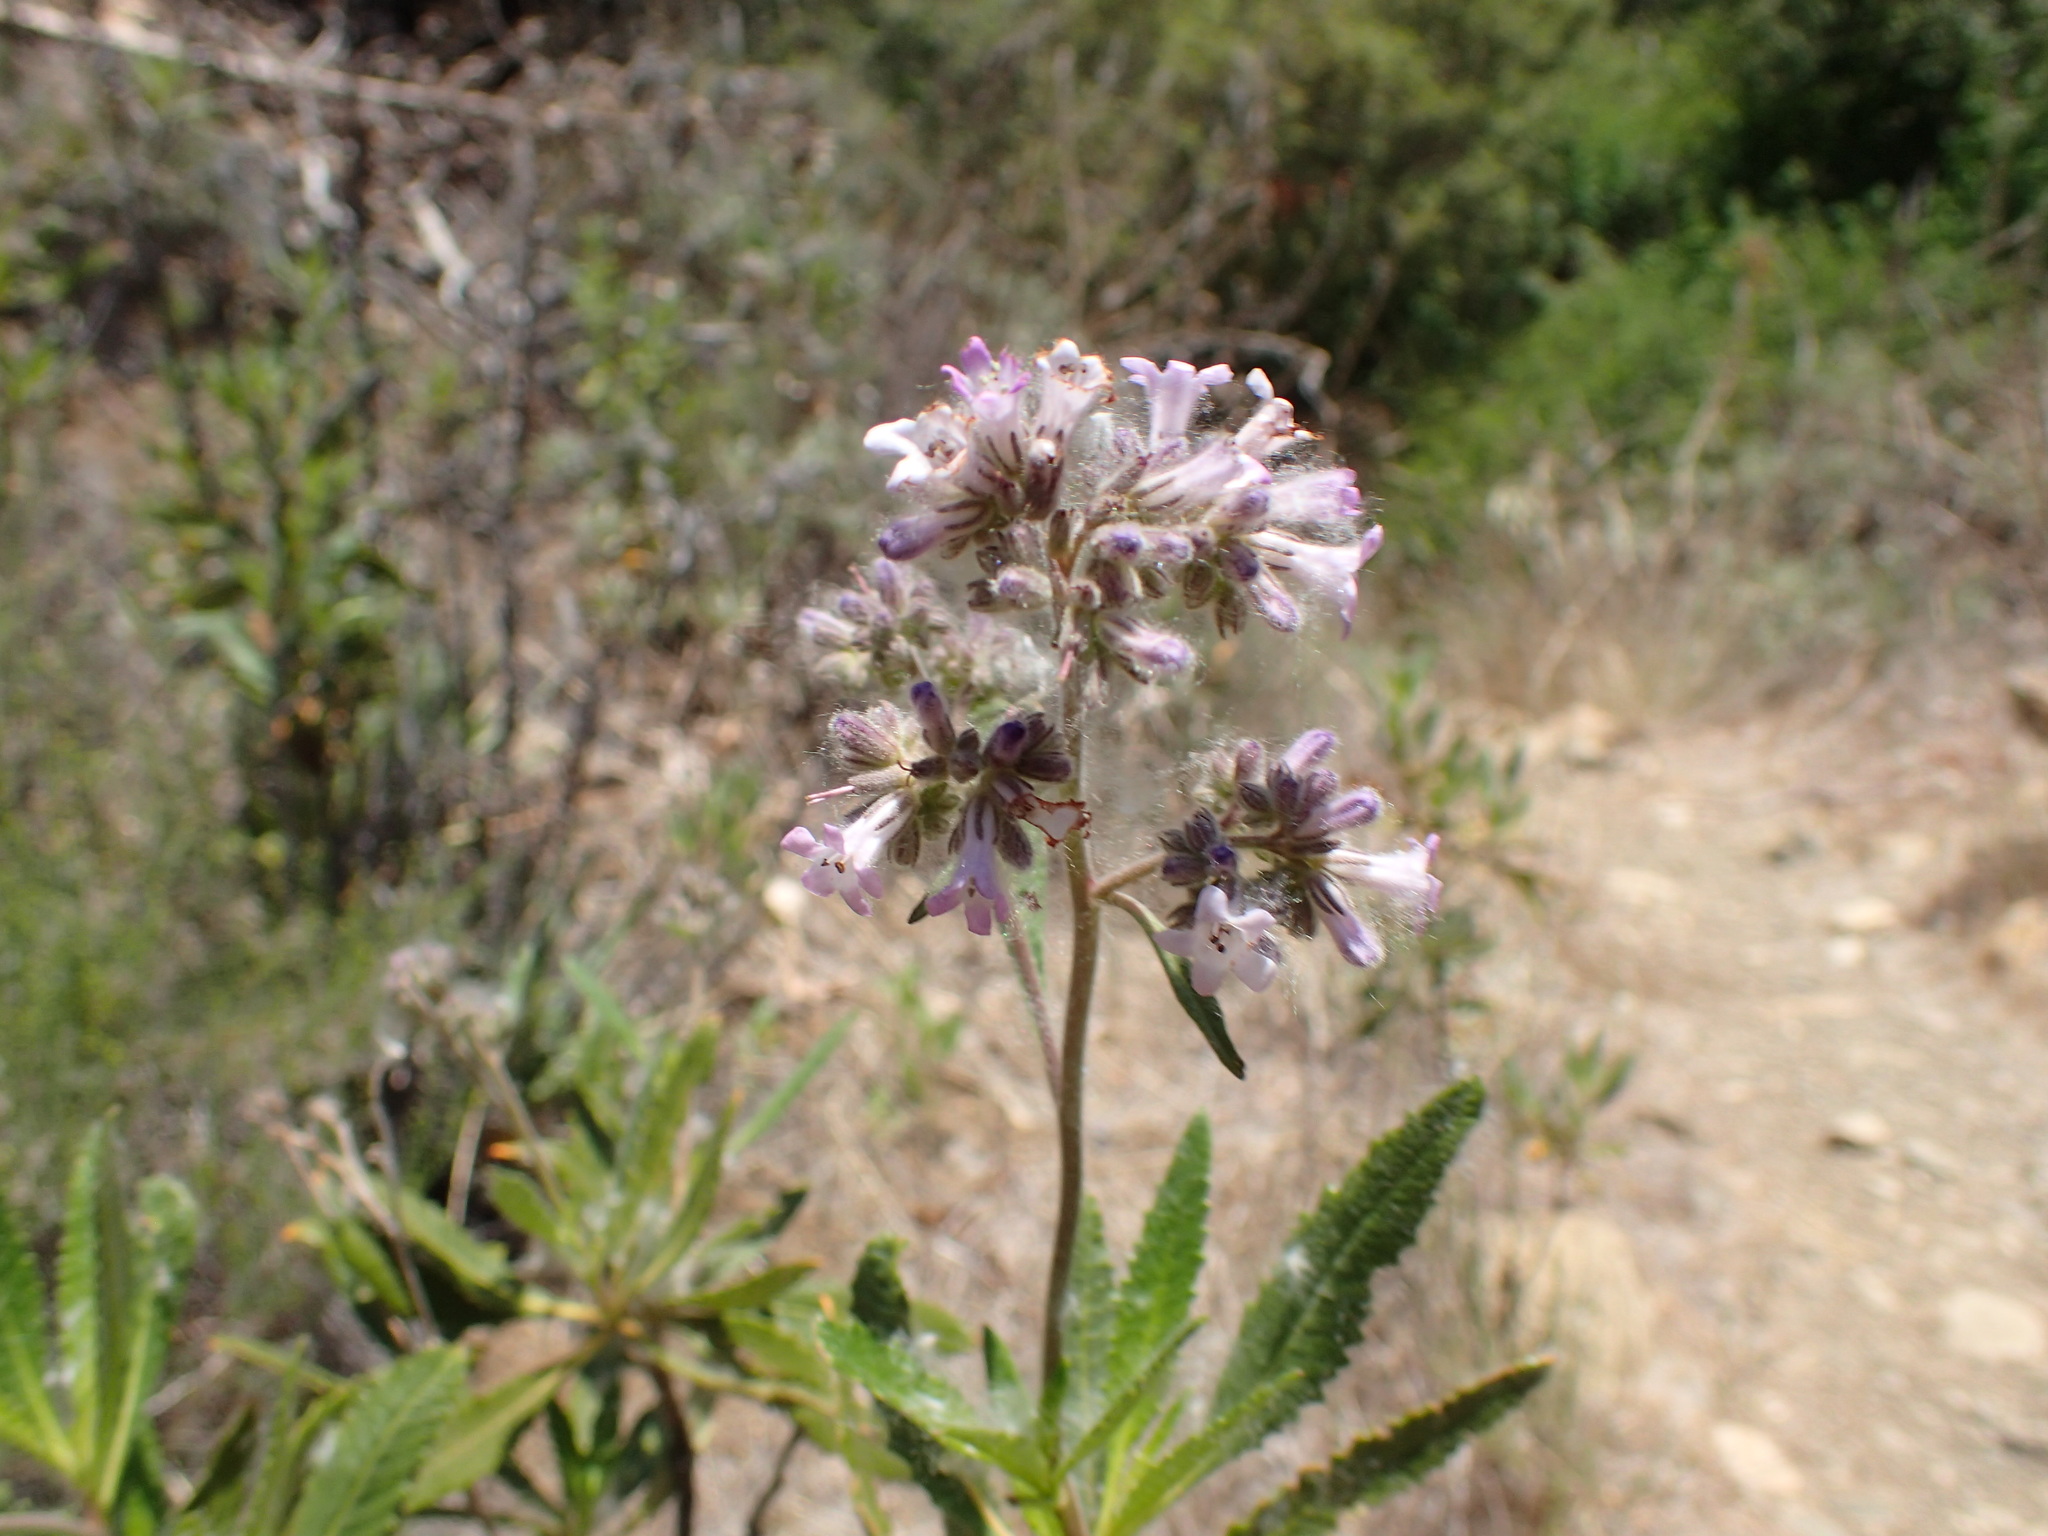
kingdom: Plantae
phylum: Tracheophyta
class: Magnoliopsida
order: Boraginales
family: Namaceae
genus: Eriodictyon
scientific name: Eriodictyon crassifolium
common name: Thick-leaf yerba-santa
